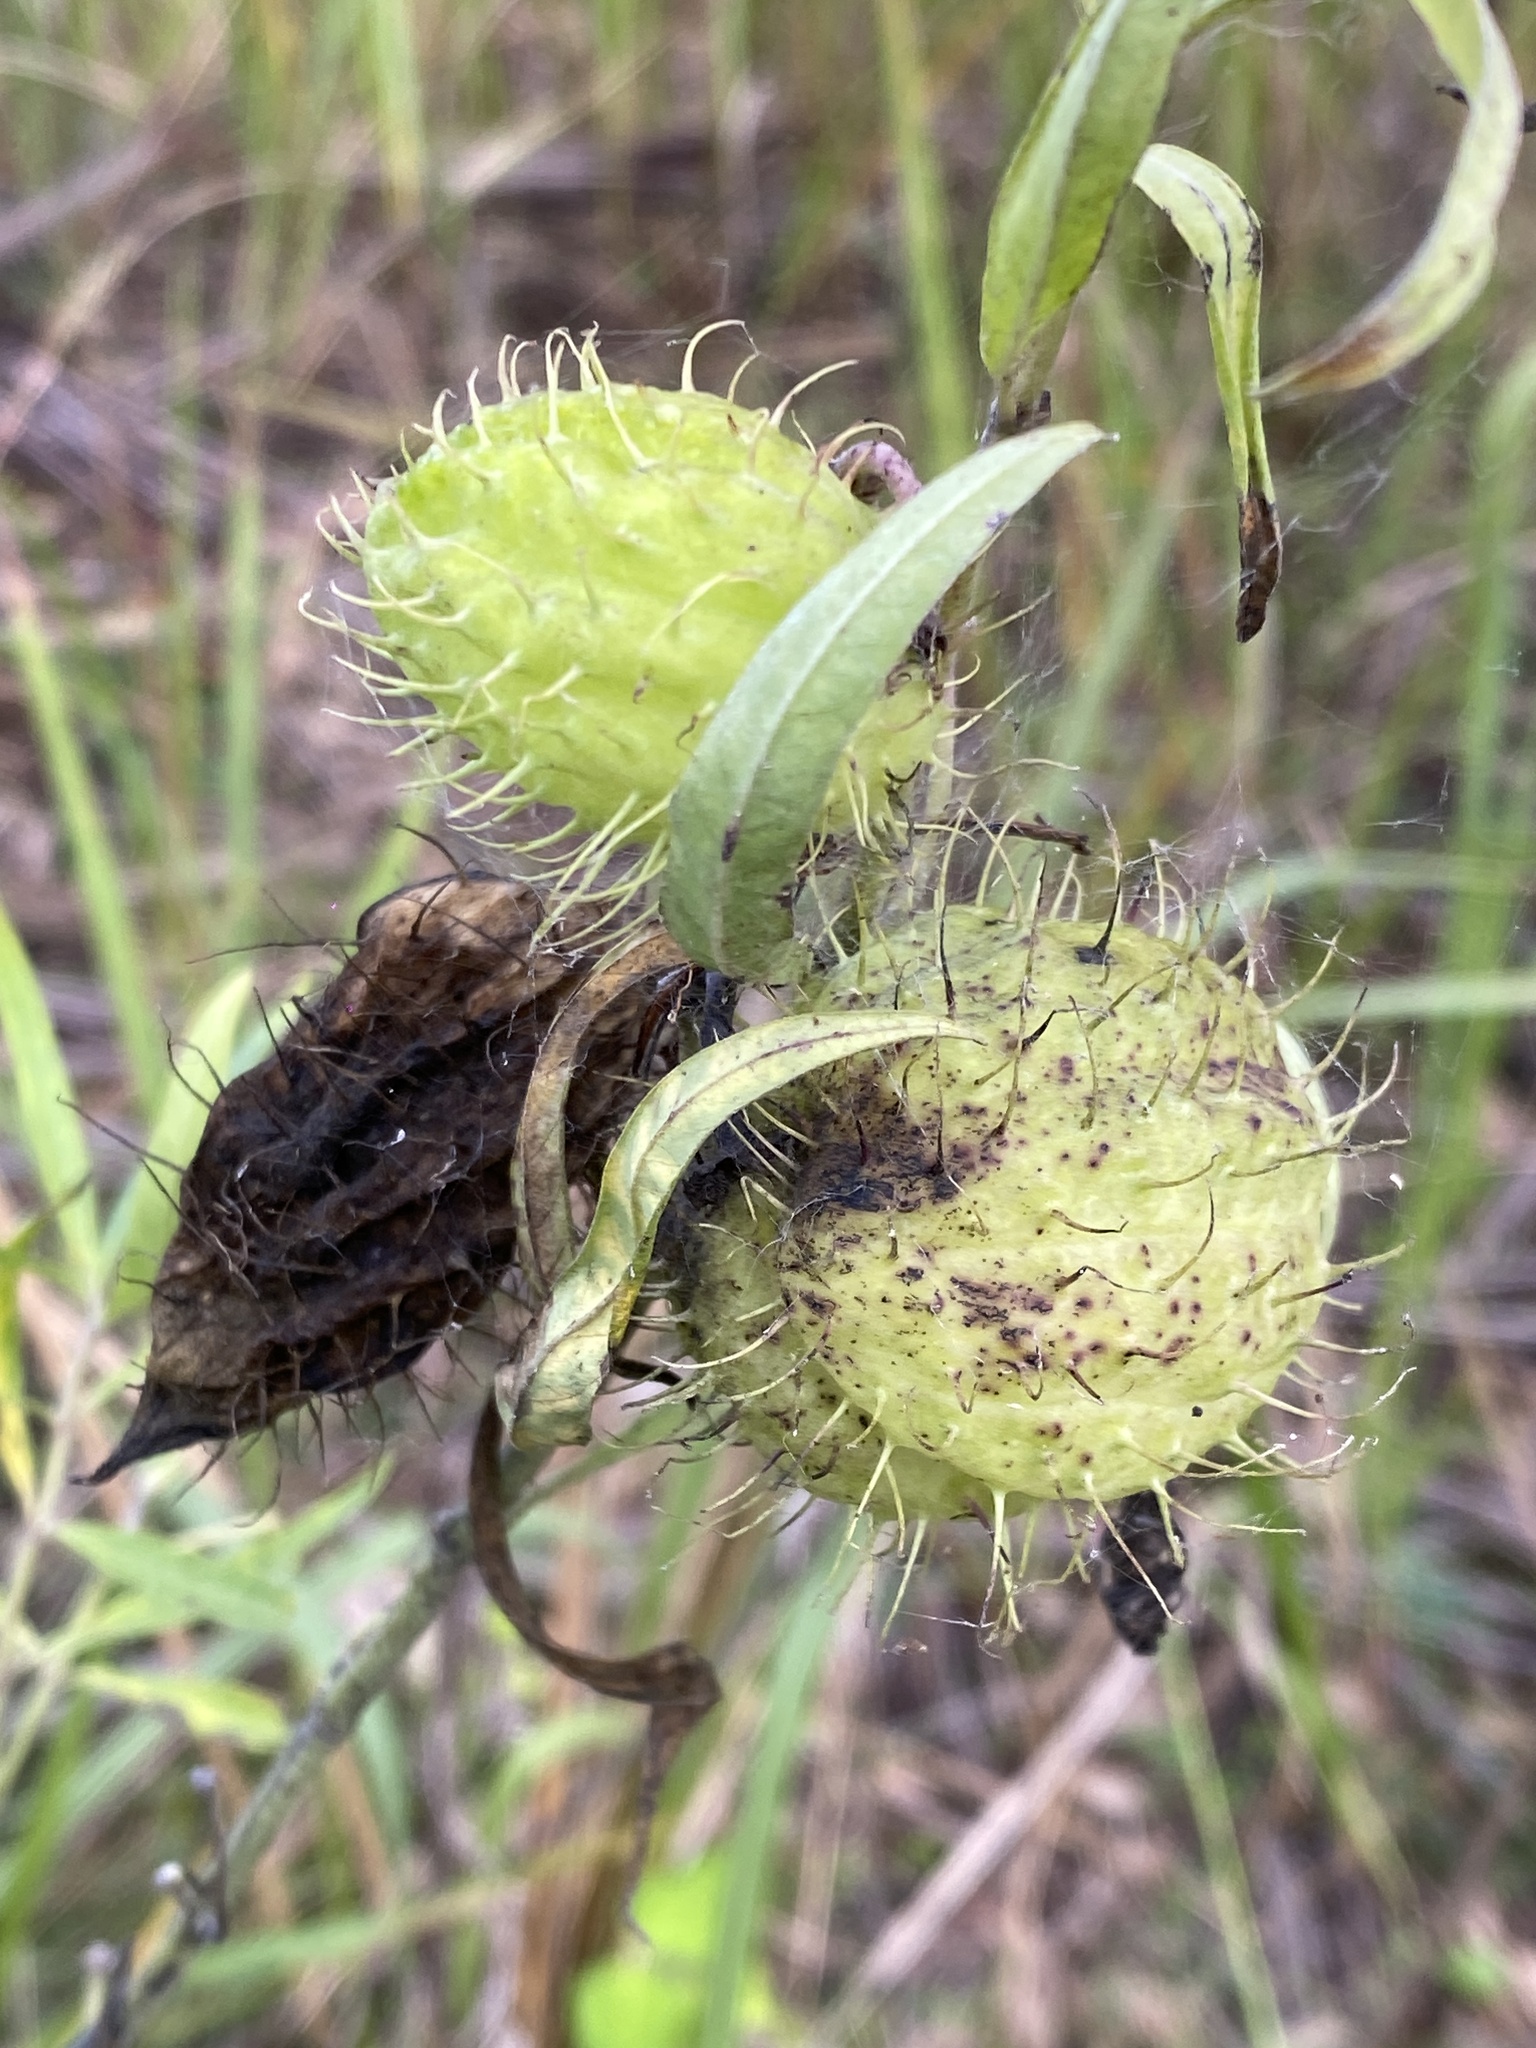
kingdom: Plantae
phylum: Tracheophyta
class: Magnoliopsida
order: Gentianales
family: Apocynaceae
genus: Gomphocarpus
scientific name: Gomphocarpus physocarpus
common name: Balloon cotton bush
